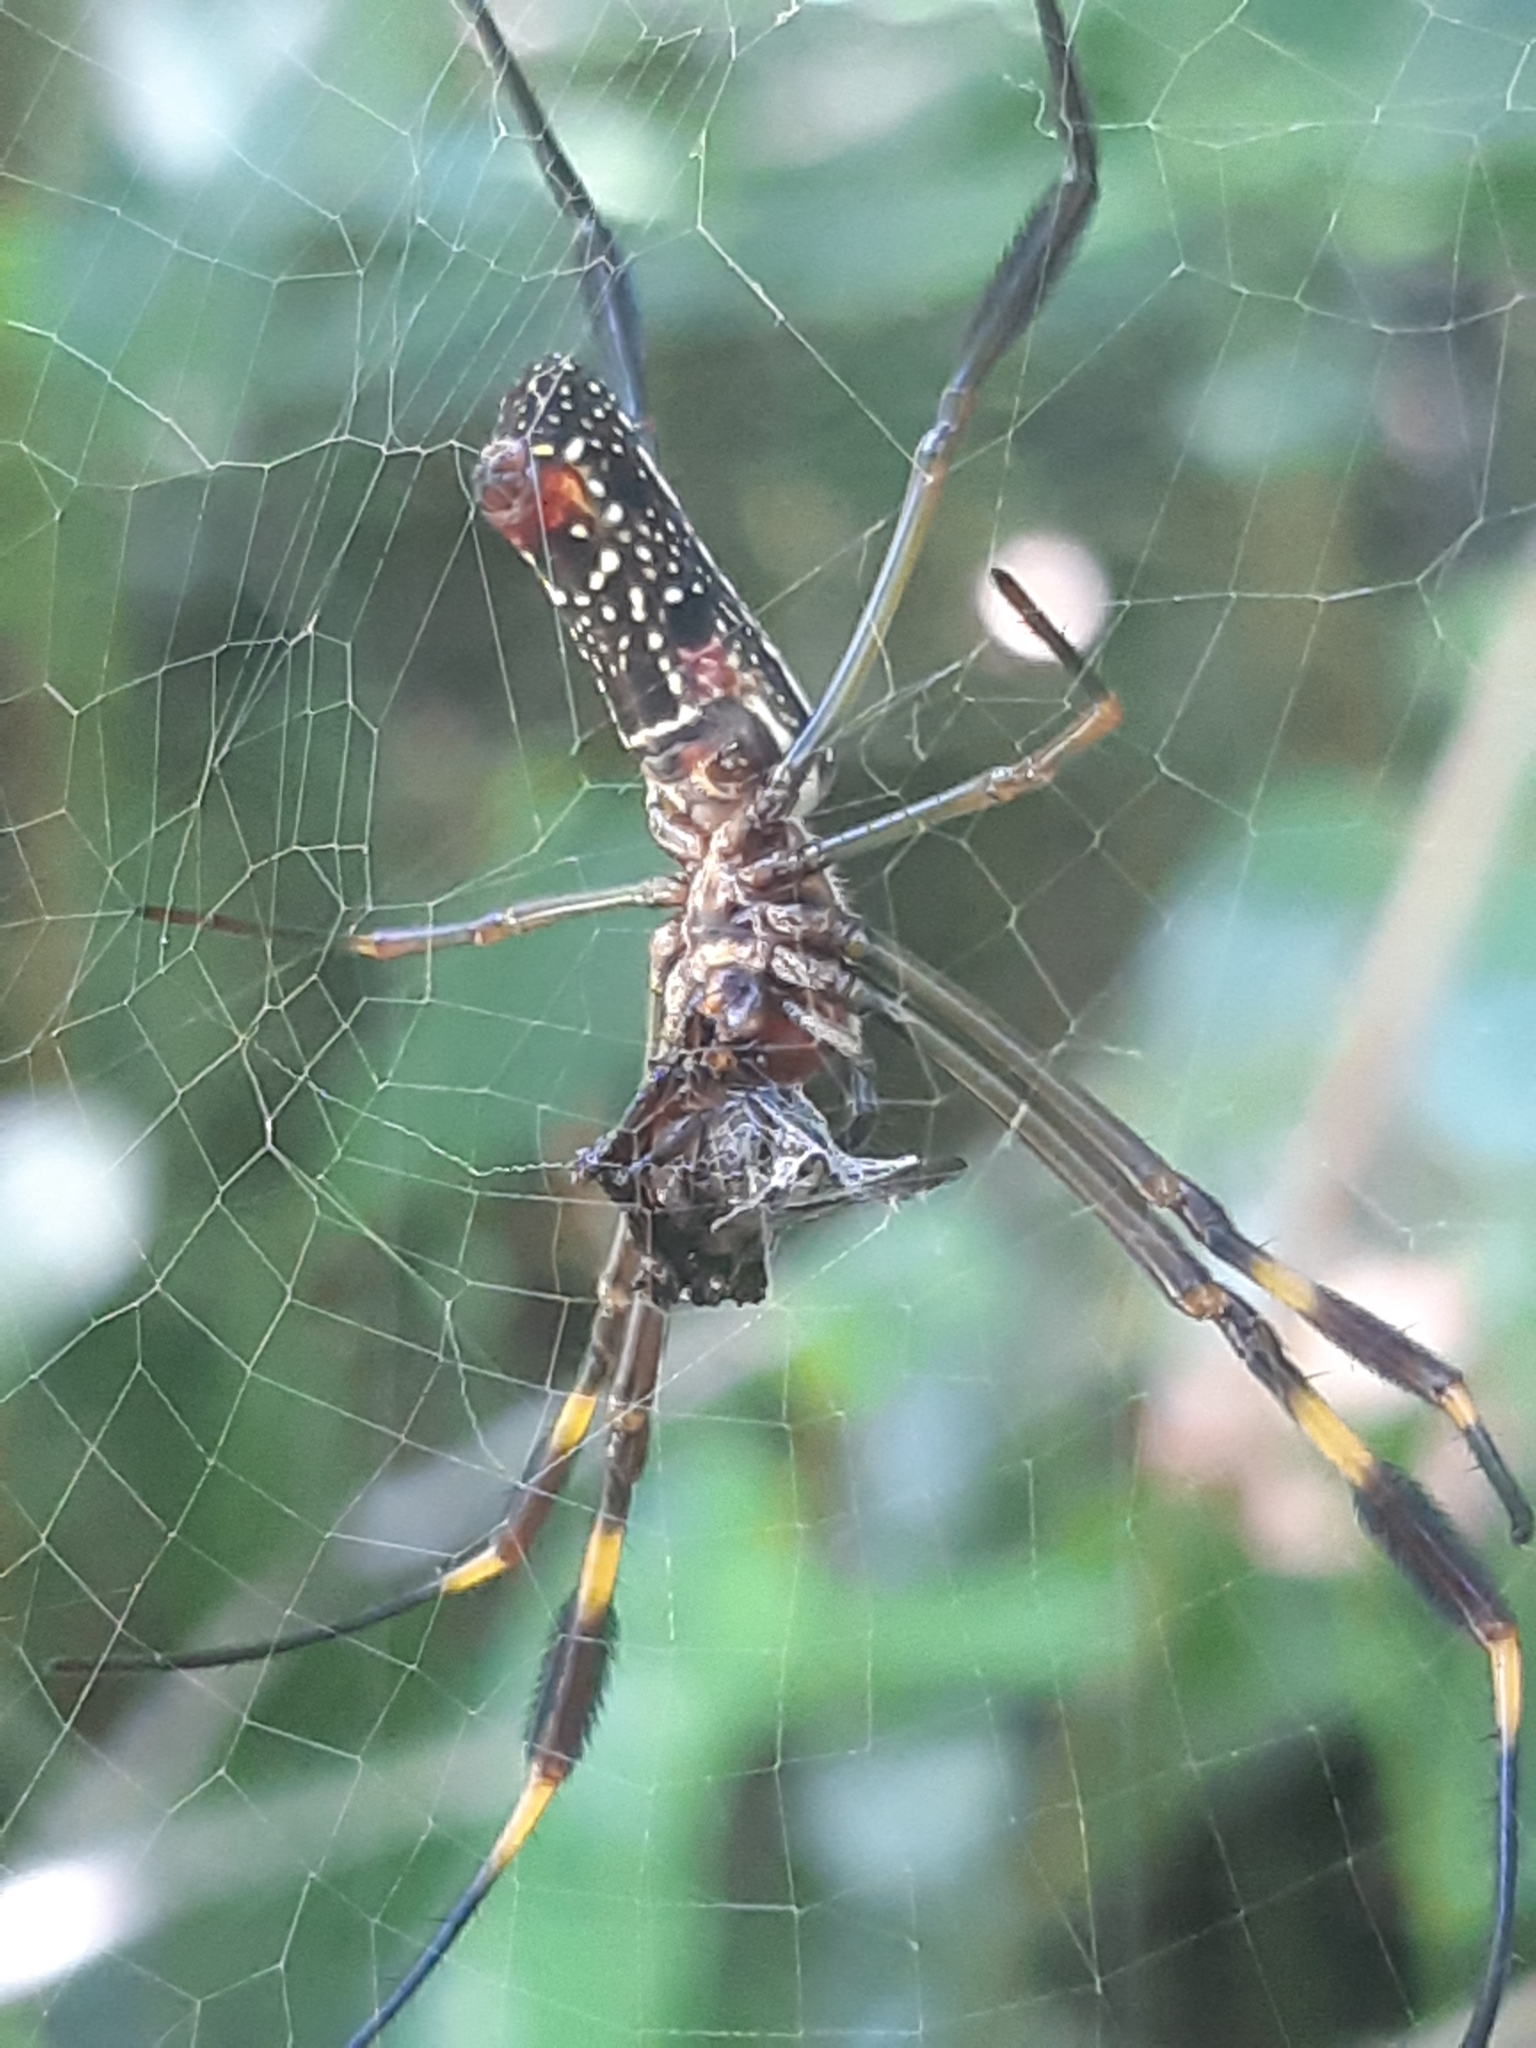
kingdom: Animalia
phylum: Arthropoda
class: Arachnida
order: Araneae
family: Araneidae
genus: Trichonephila
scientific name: Trichonephila clavipes
